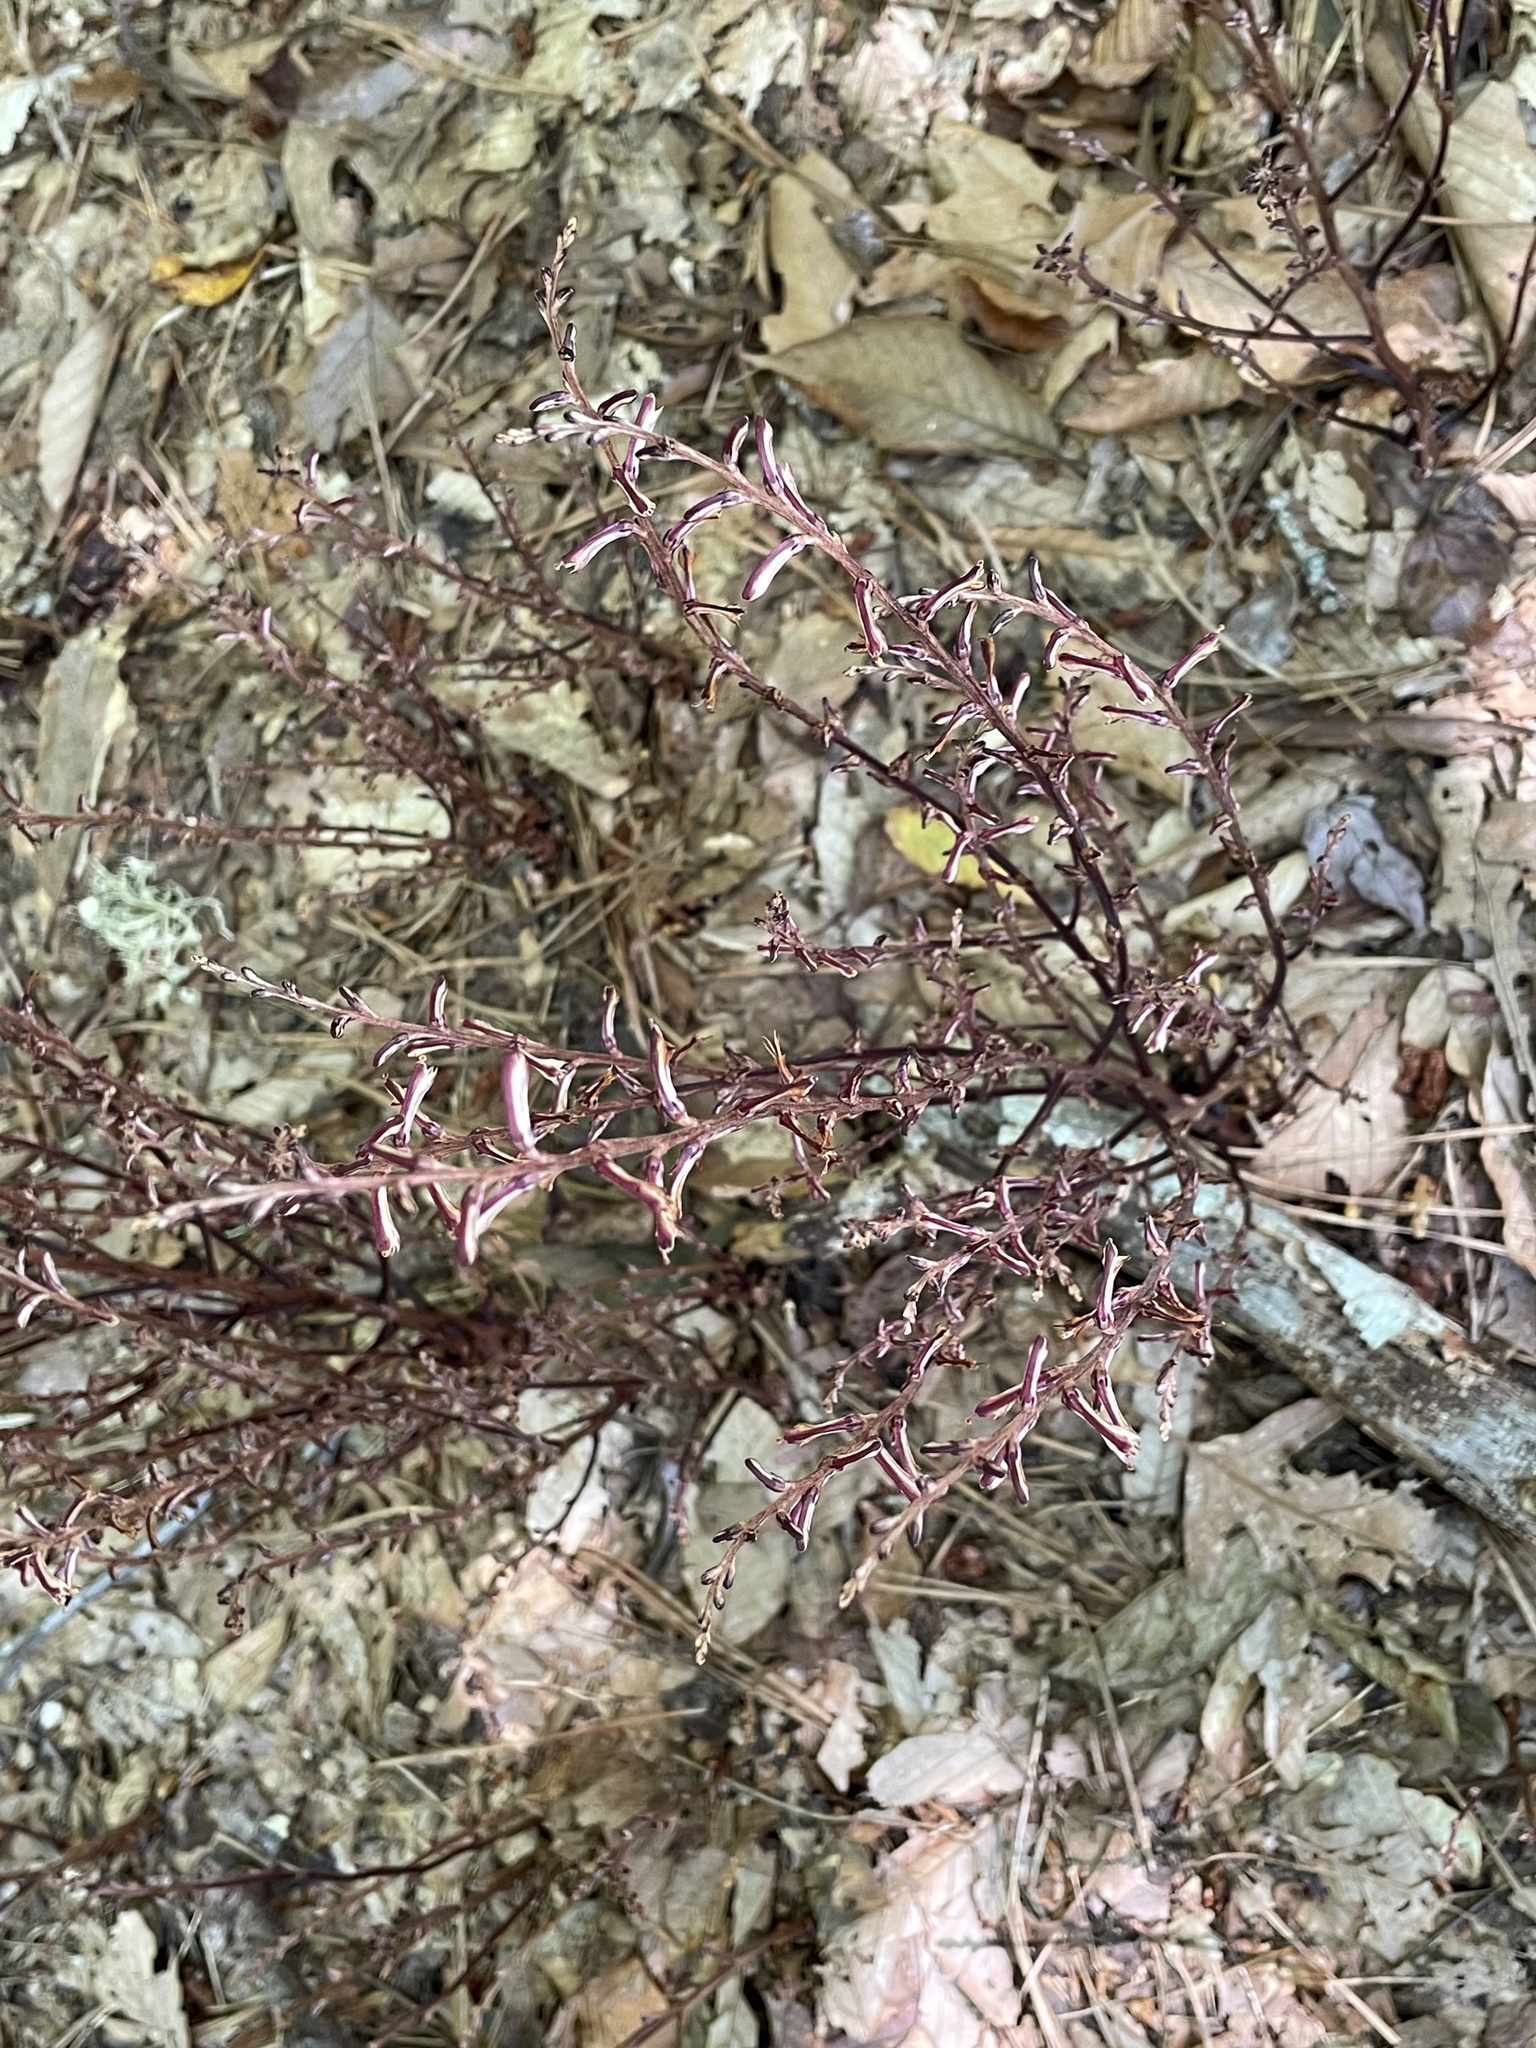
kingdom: Plantae
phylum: Tracheophyta
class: Magnoliopsida
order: Lamiales
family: Orobanchaceae
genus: Epifagus
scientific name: Epifagus virginiana
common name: Beechdrops
